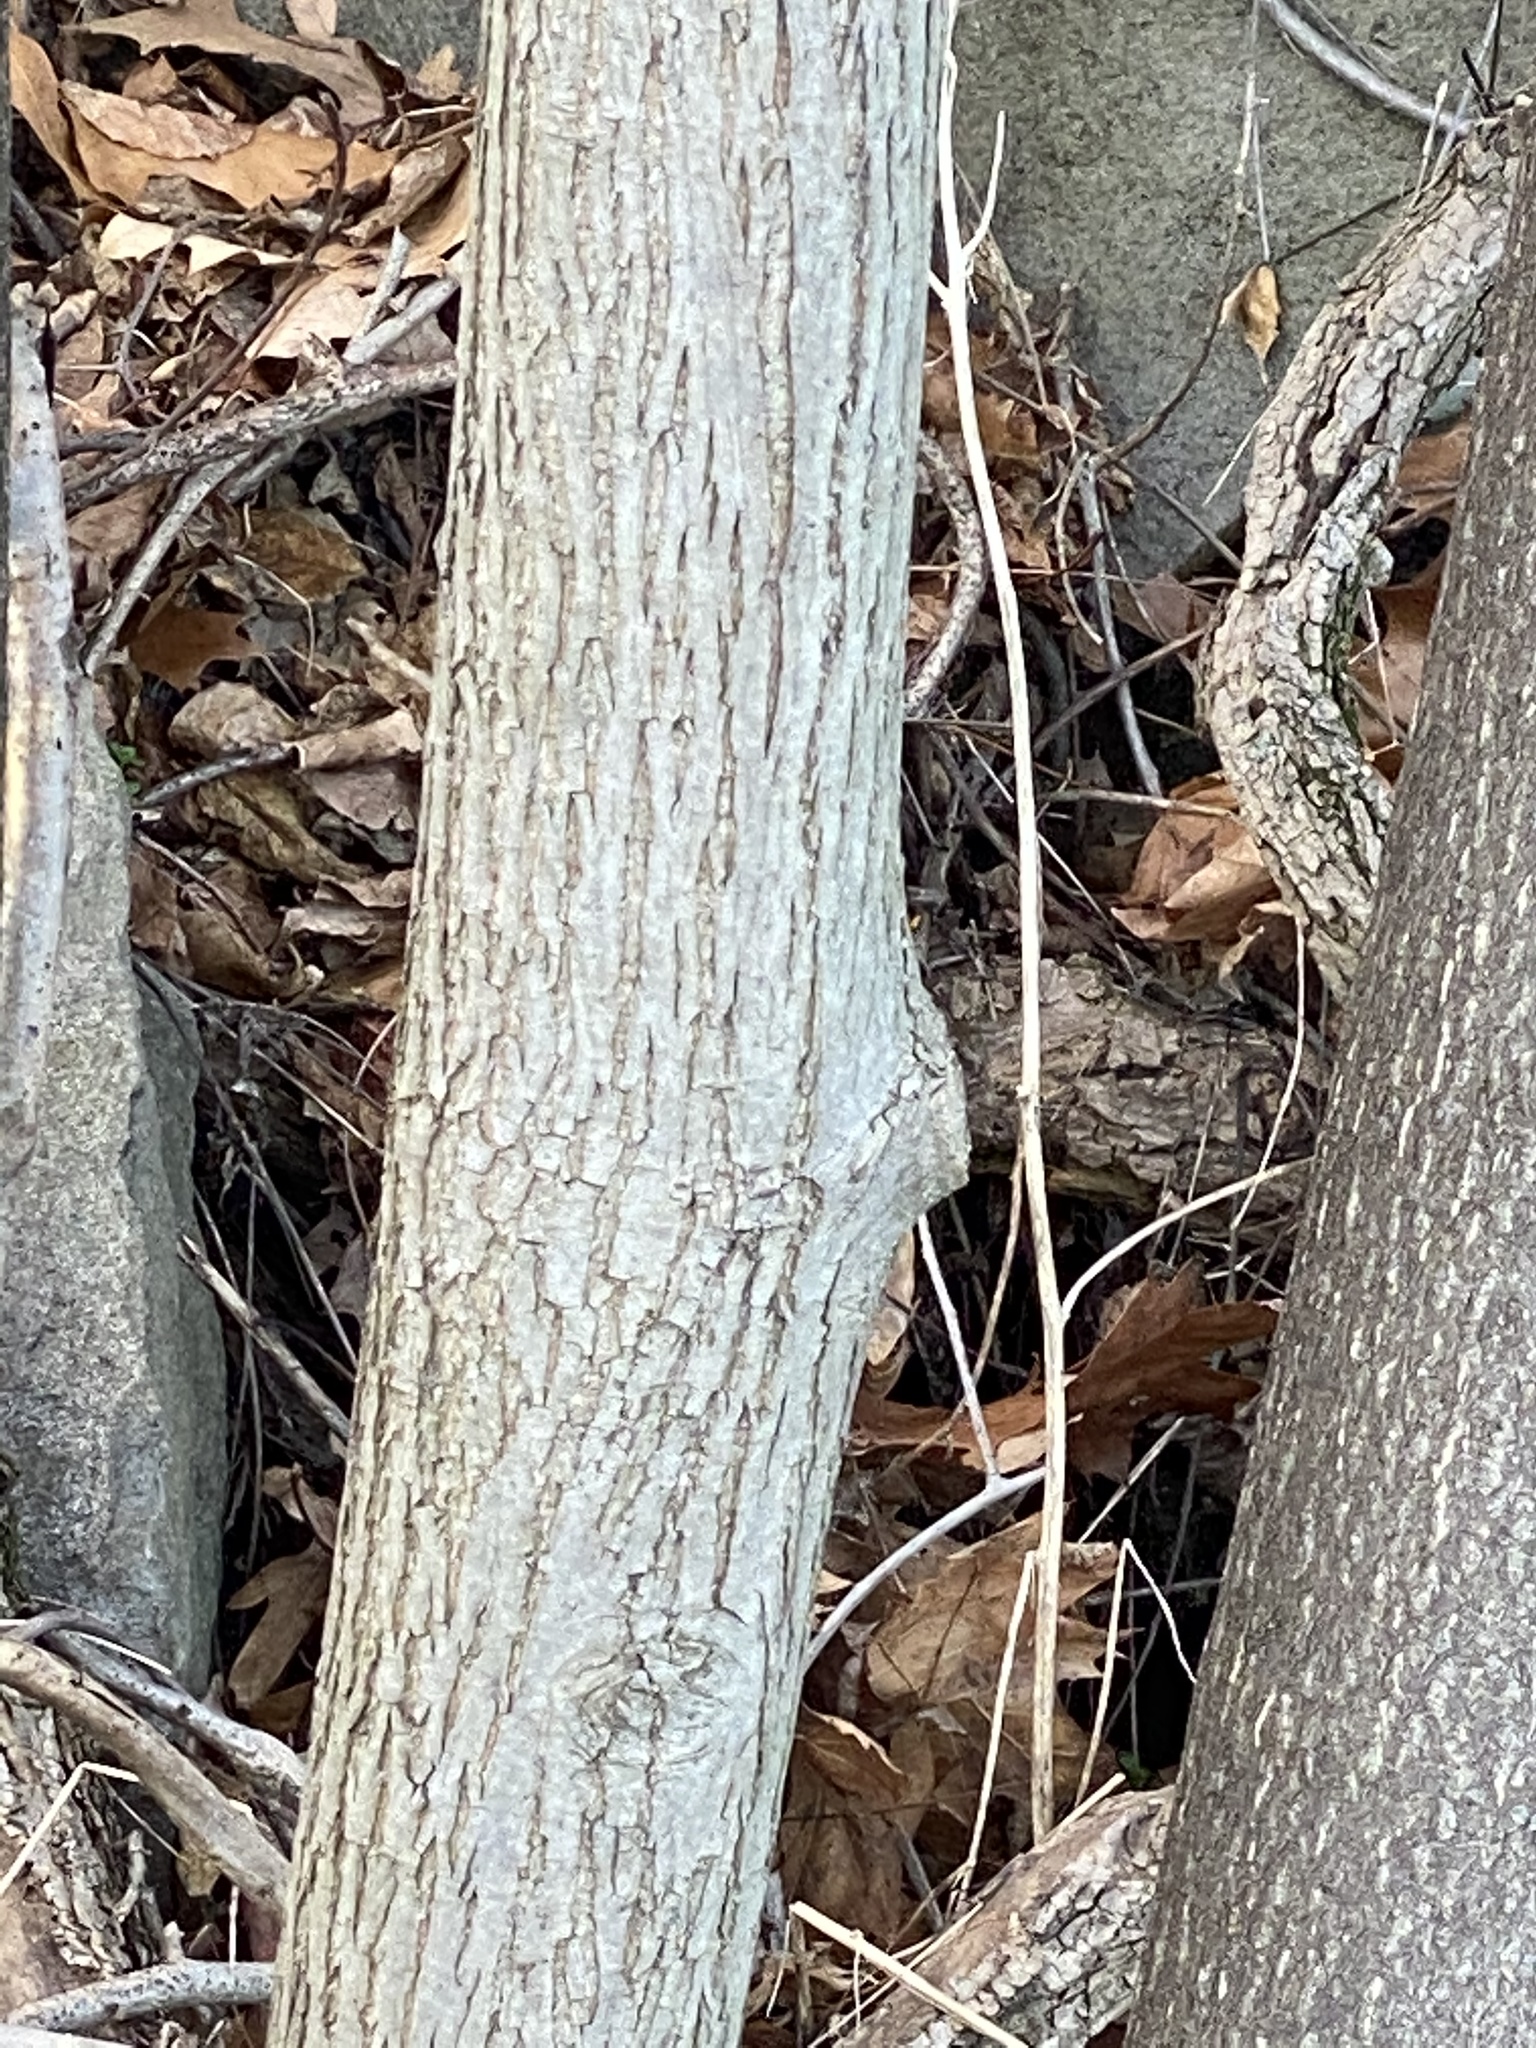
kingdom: Plantae
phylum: Tracheophyta
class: Magnoliopsida
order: Fagales
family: Juglandaceae
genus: Carya
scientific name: Carya cordiformis
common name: Bitternut hickory
